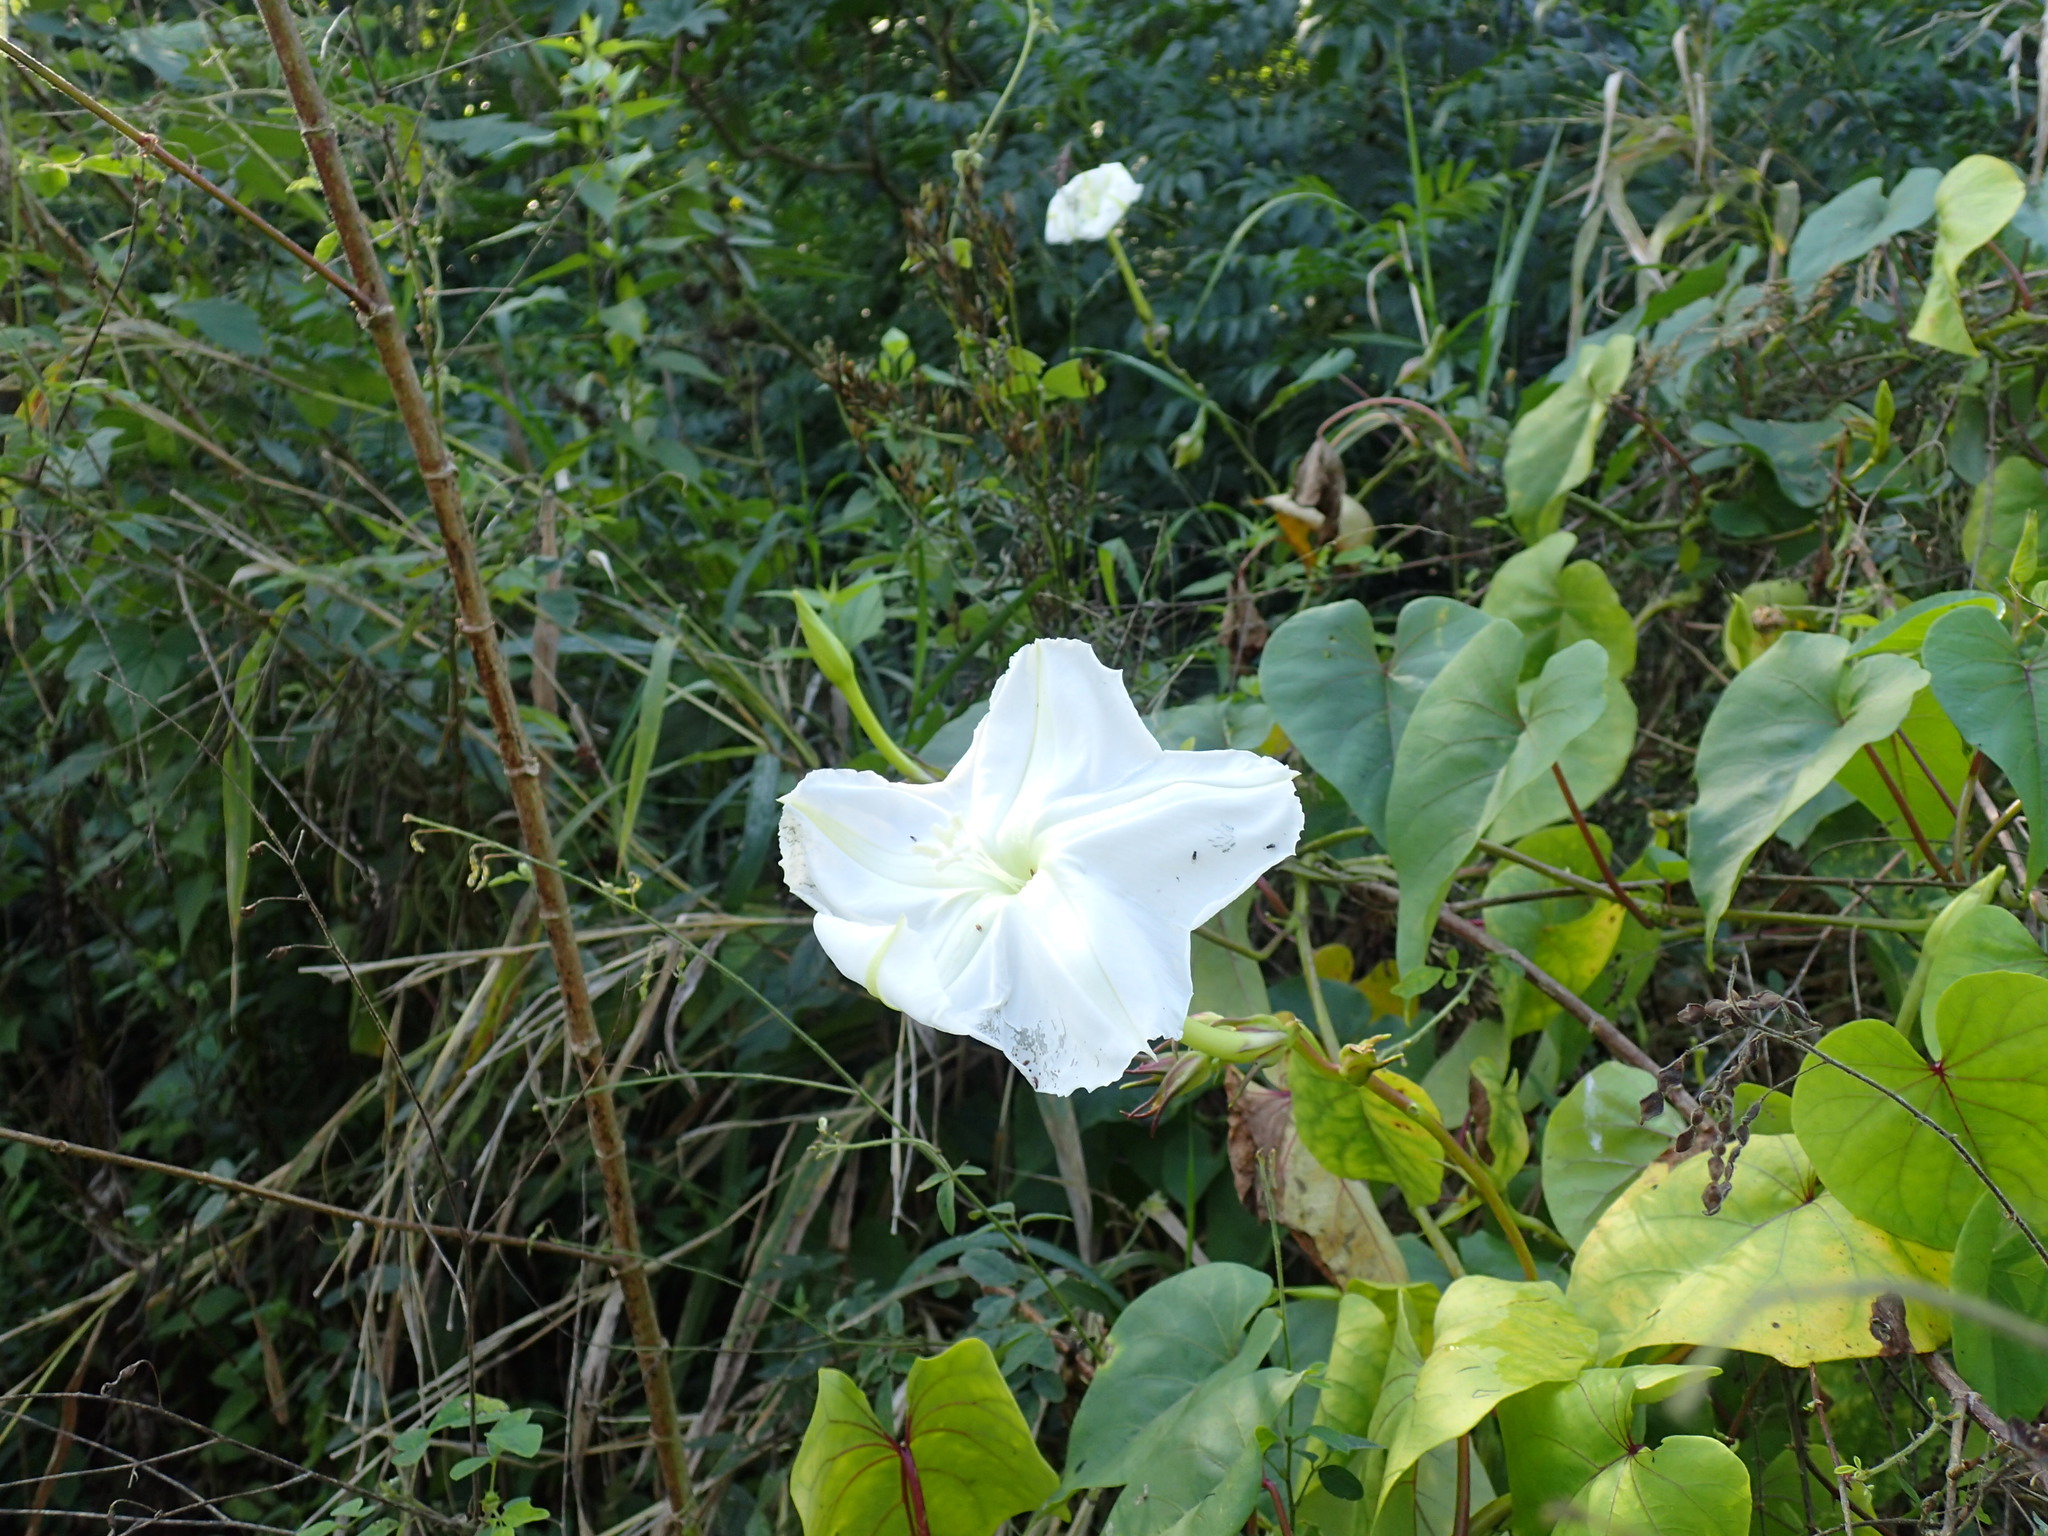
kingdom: Plantae
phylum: Tracheophyta
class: Magnoliopsida
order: Solanales
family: Convolvulaceae
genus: Ipomoea
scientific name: Ipomoea alba
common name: Moonflower
